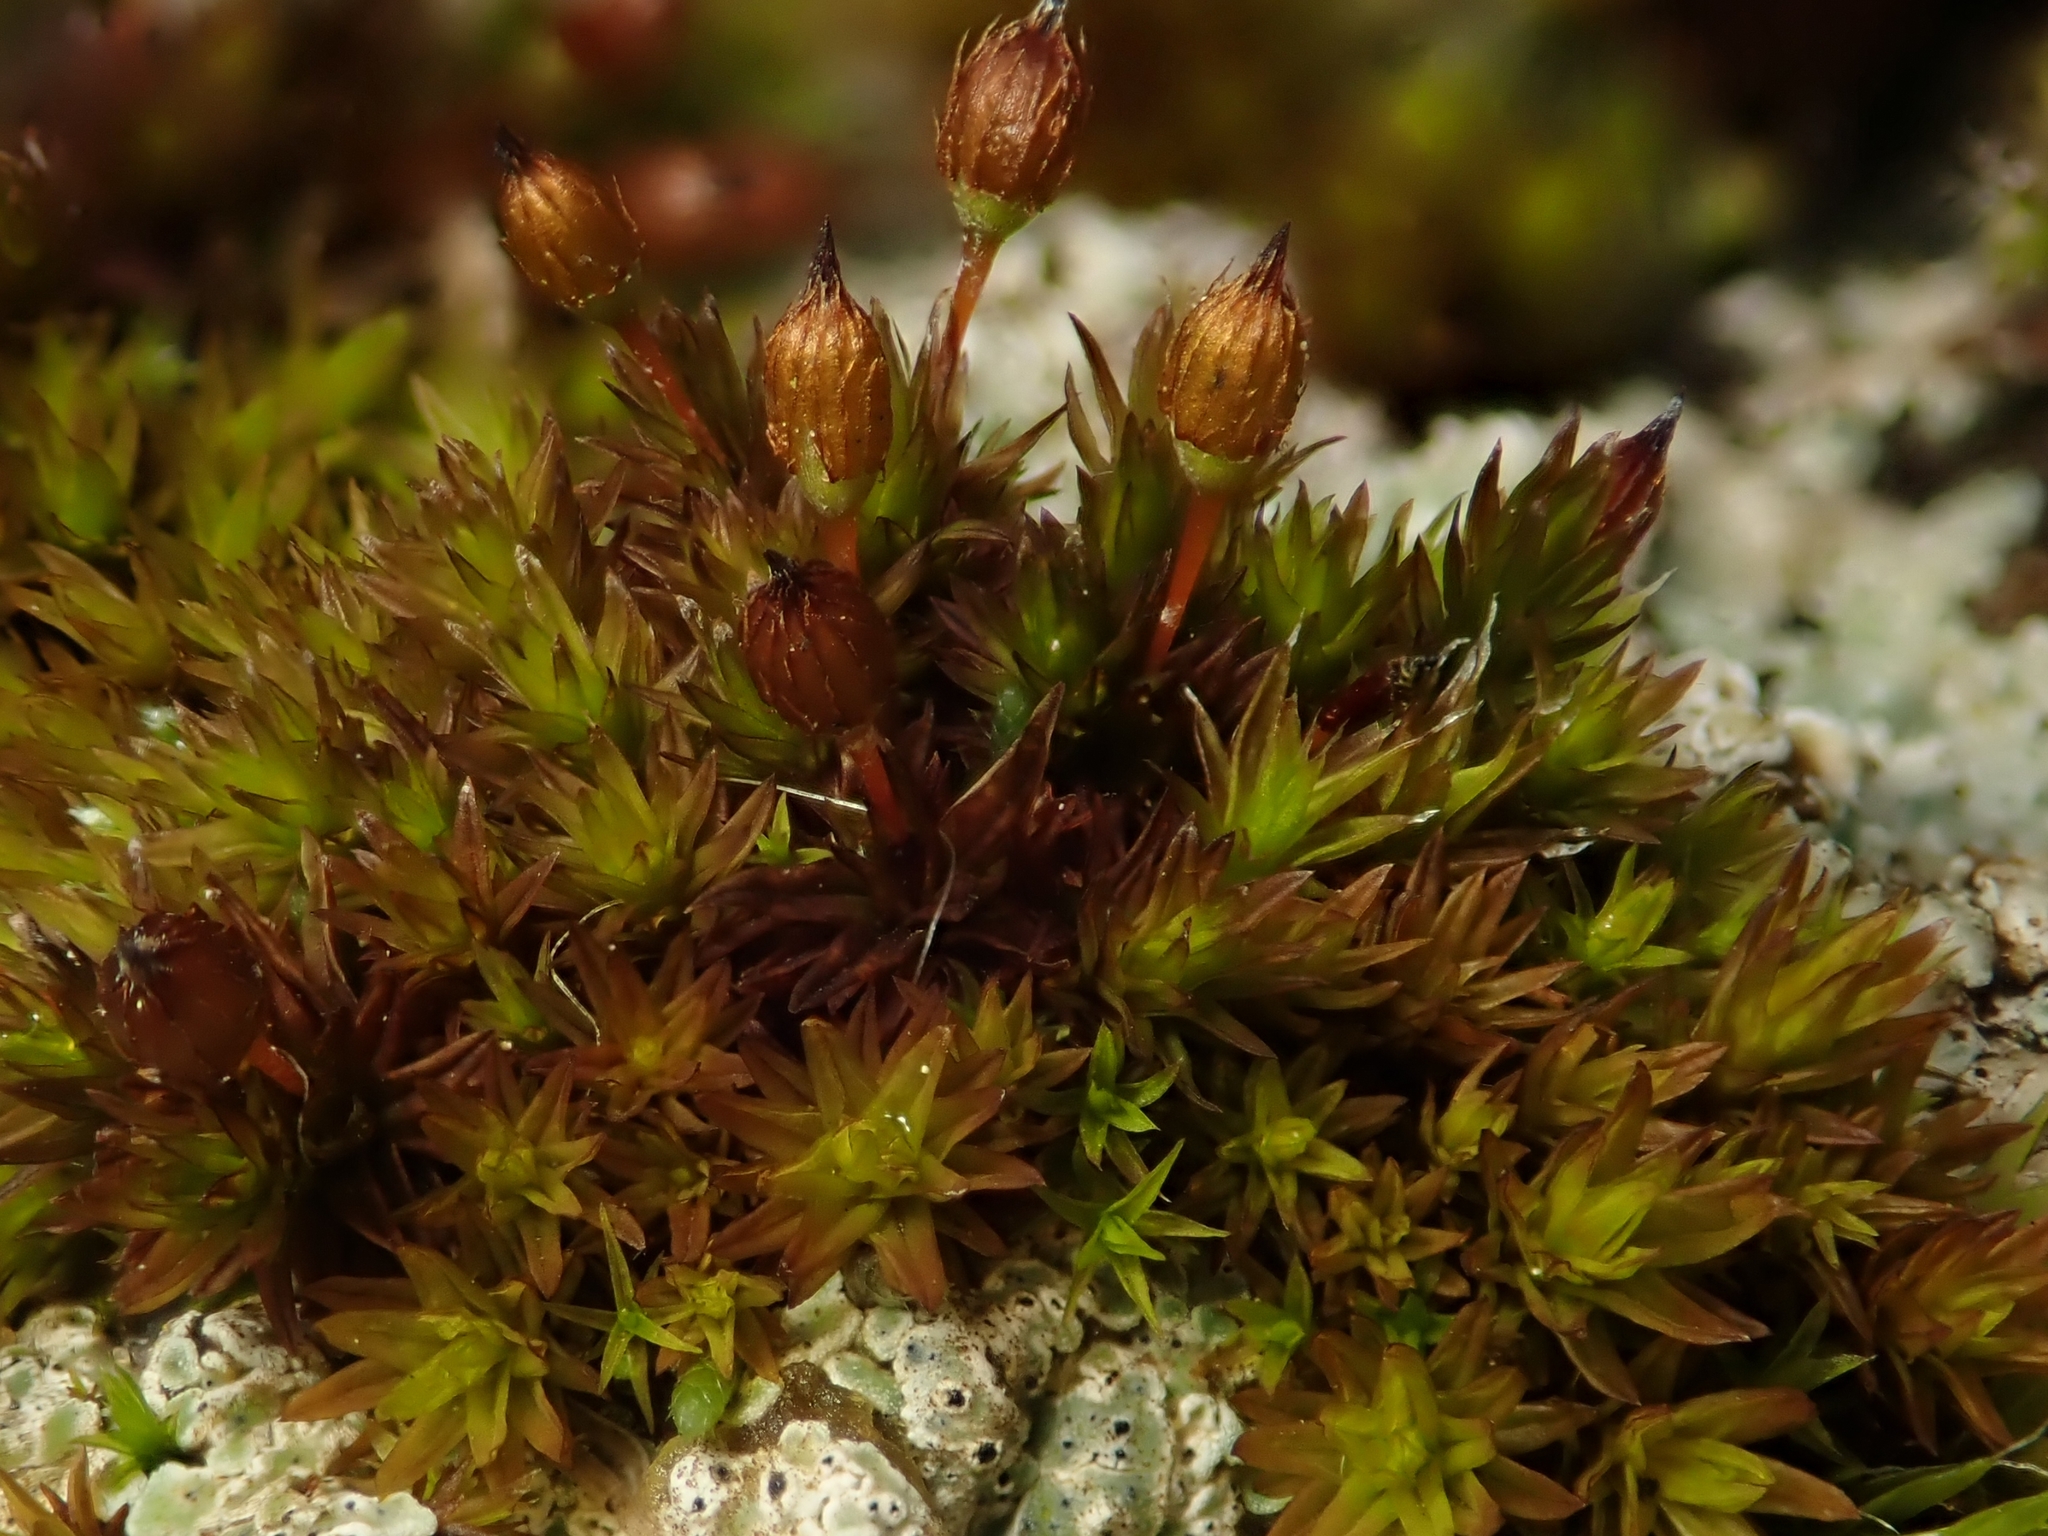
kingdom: Plantae
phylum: Bryophyta
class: Bryopsida
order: Orthotrichales
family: Orthotrichaceae
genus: Orthotrichum
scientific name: Orthotrichum anomalum
